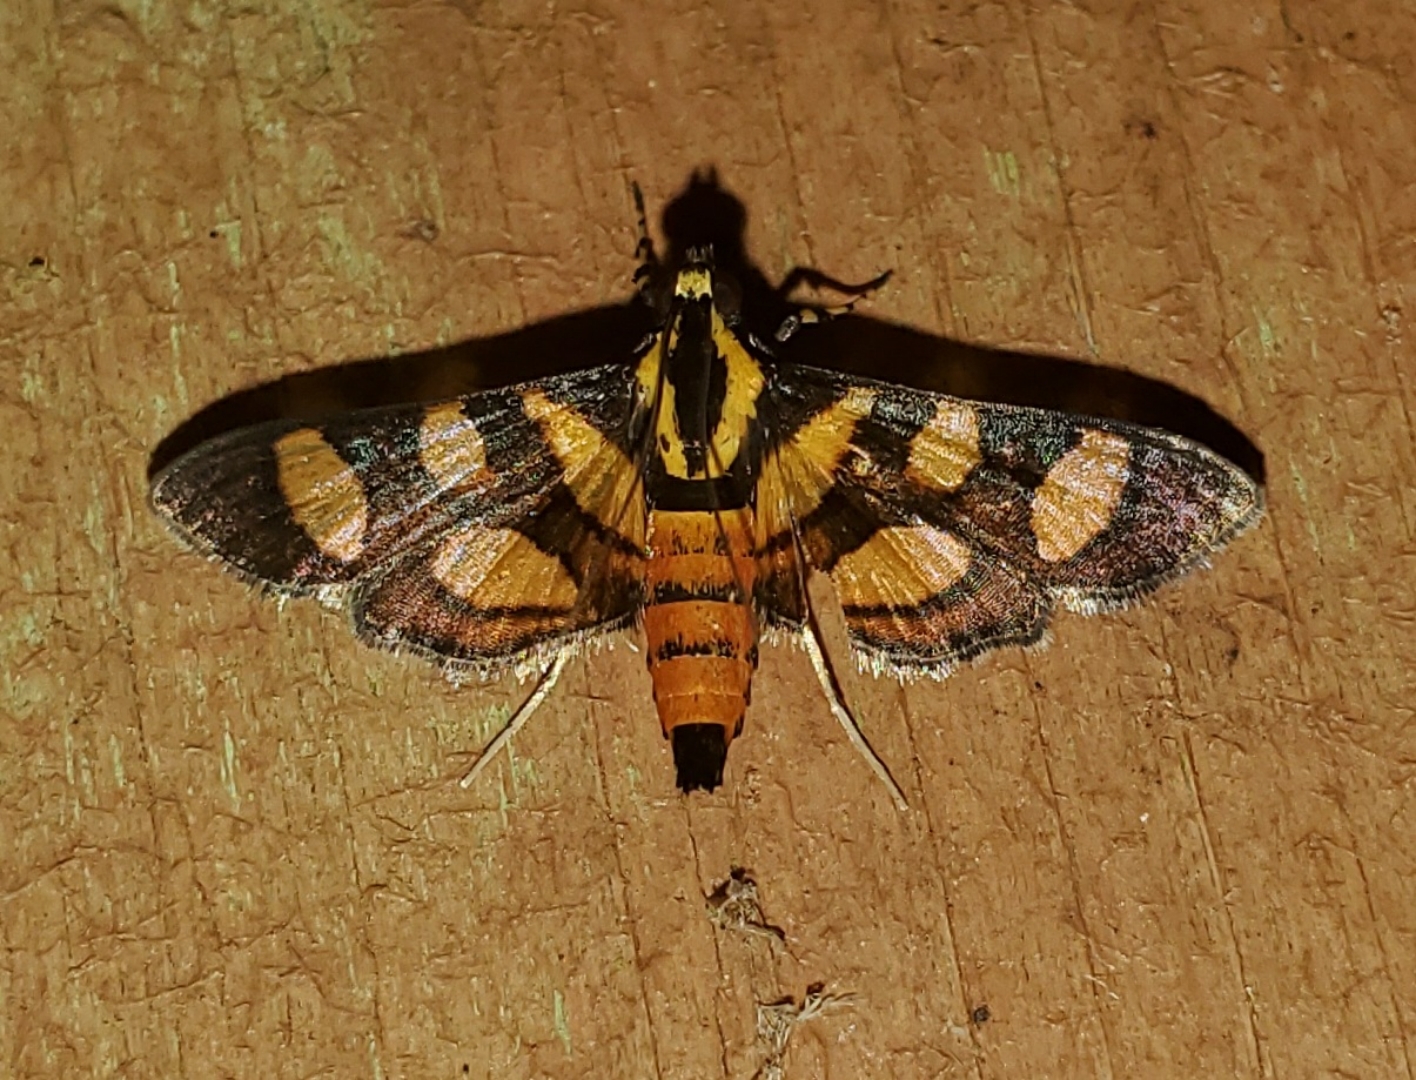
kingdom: Animalia
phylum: Arthropoda
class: Insecta
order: Lepidoptera
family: Crambidae
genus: Syngamia
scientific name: Syngamia florella
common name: Orange-spotted flower moth
